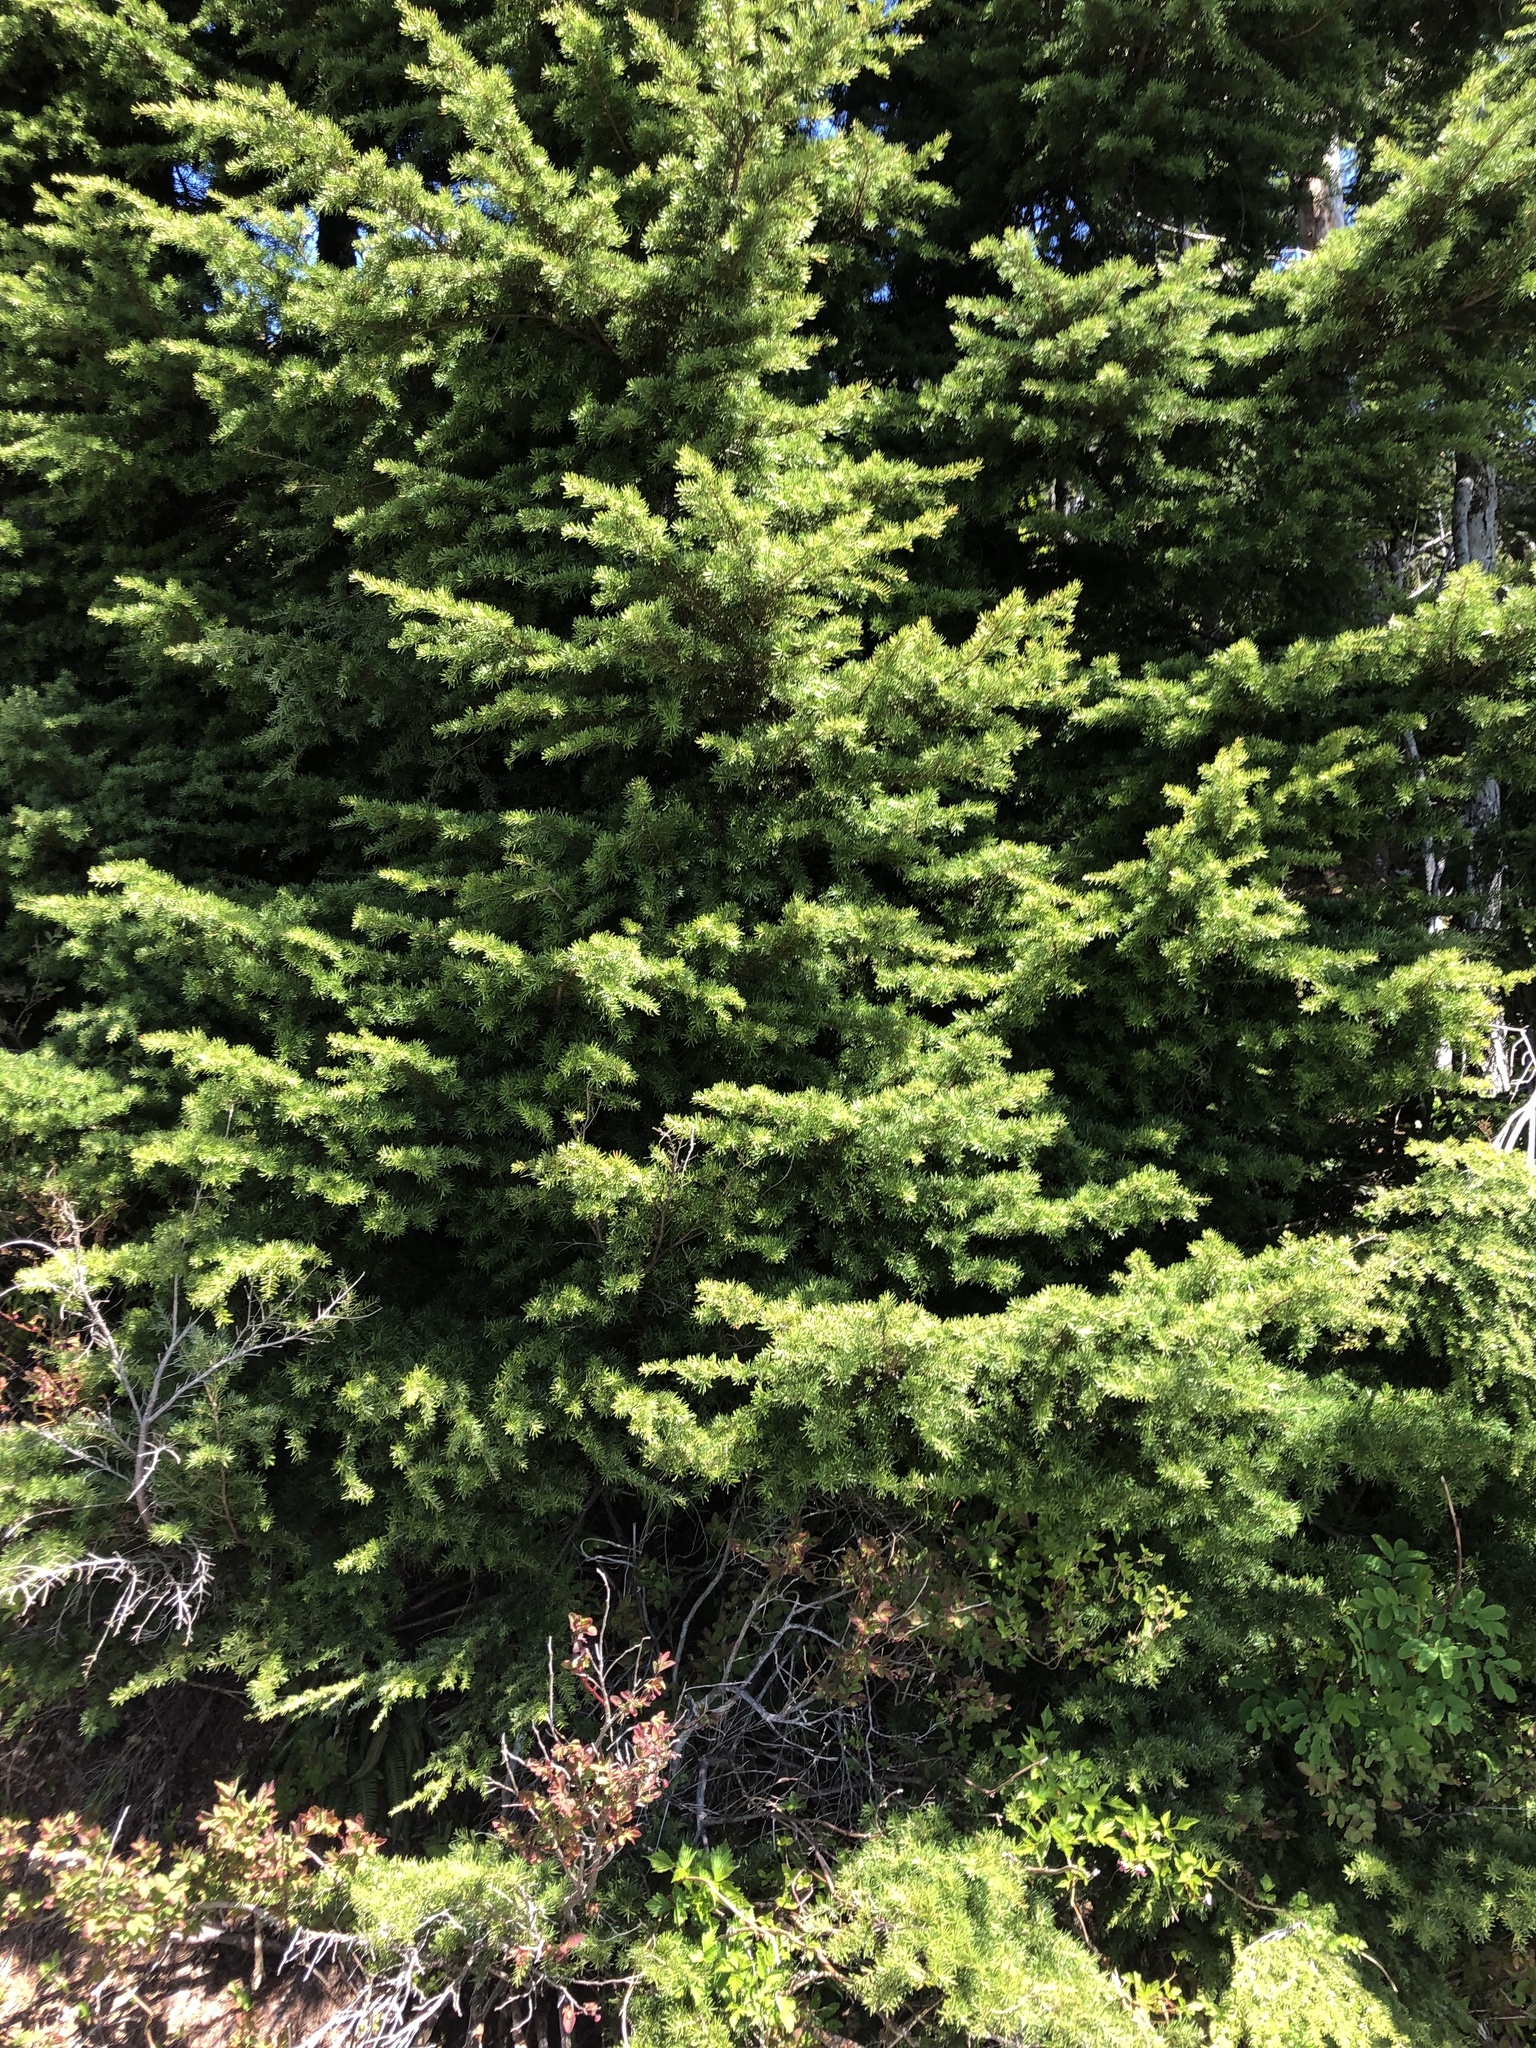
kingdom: Plantae
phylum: Tracheophyta
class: Pinopsida
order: Pinales
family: Pinaceae
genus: Tsuga
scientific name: Tsuga mertensiana
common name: Mountain hemlock
